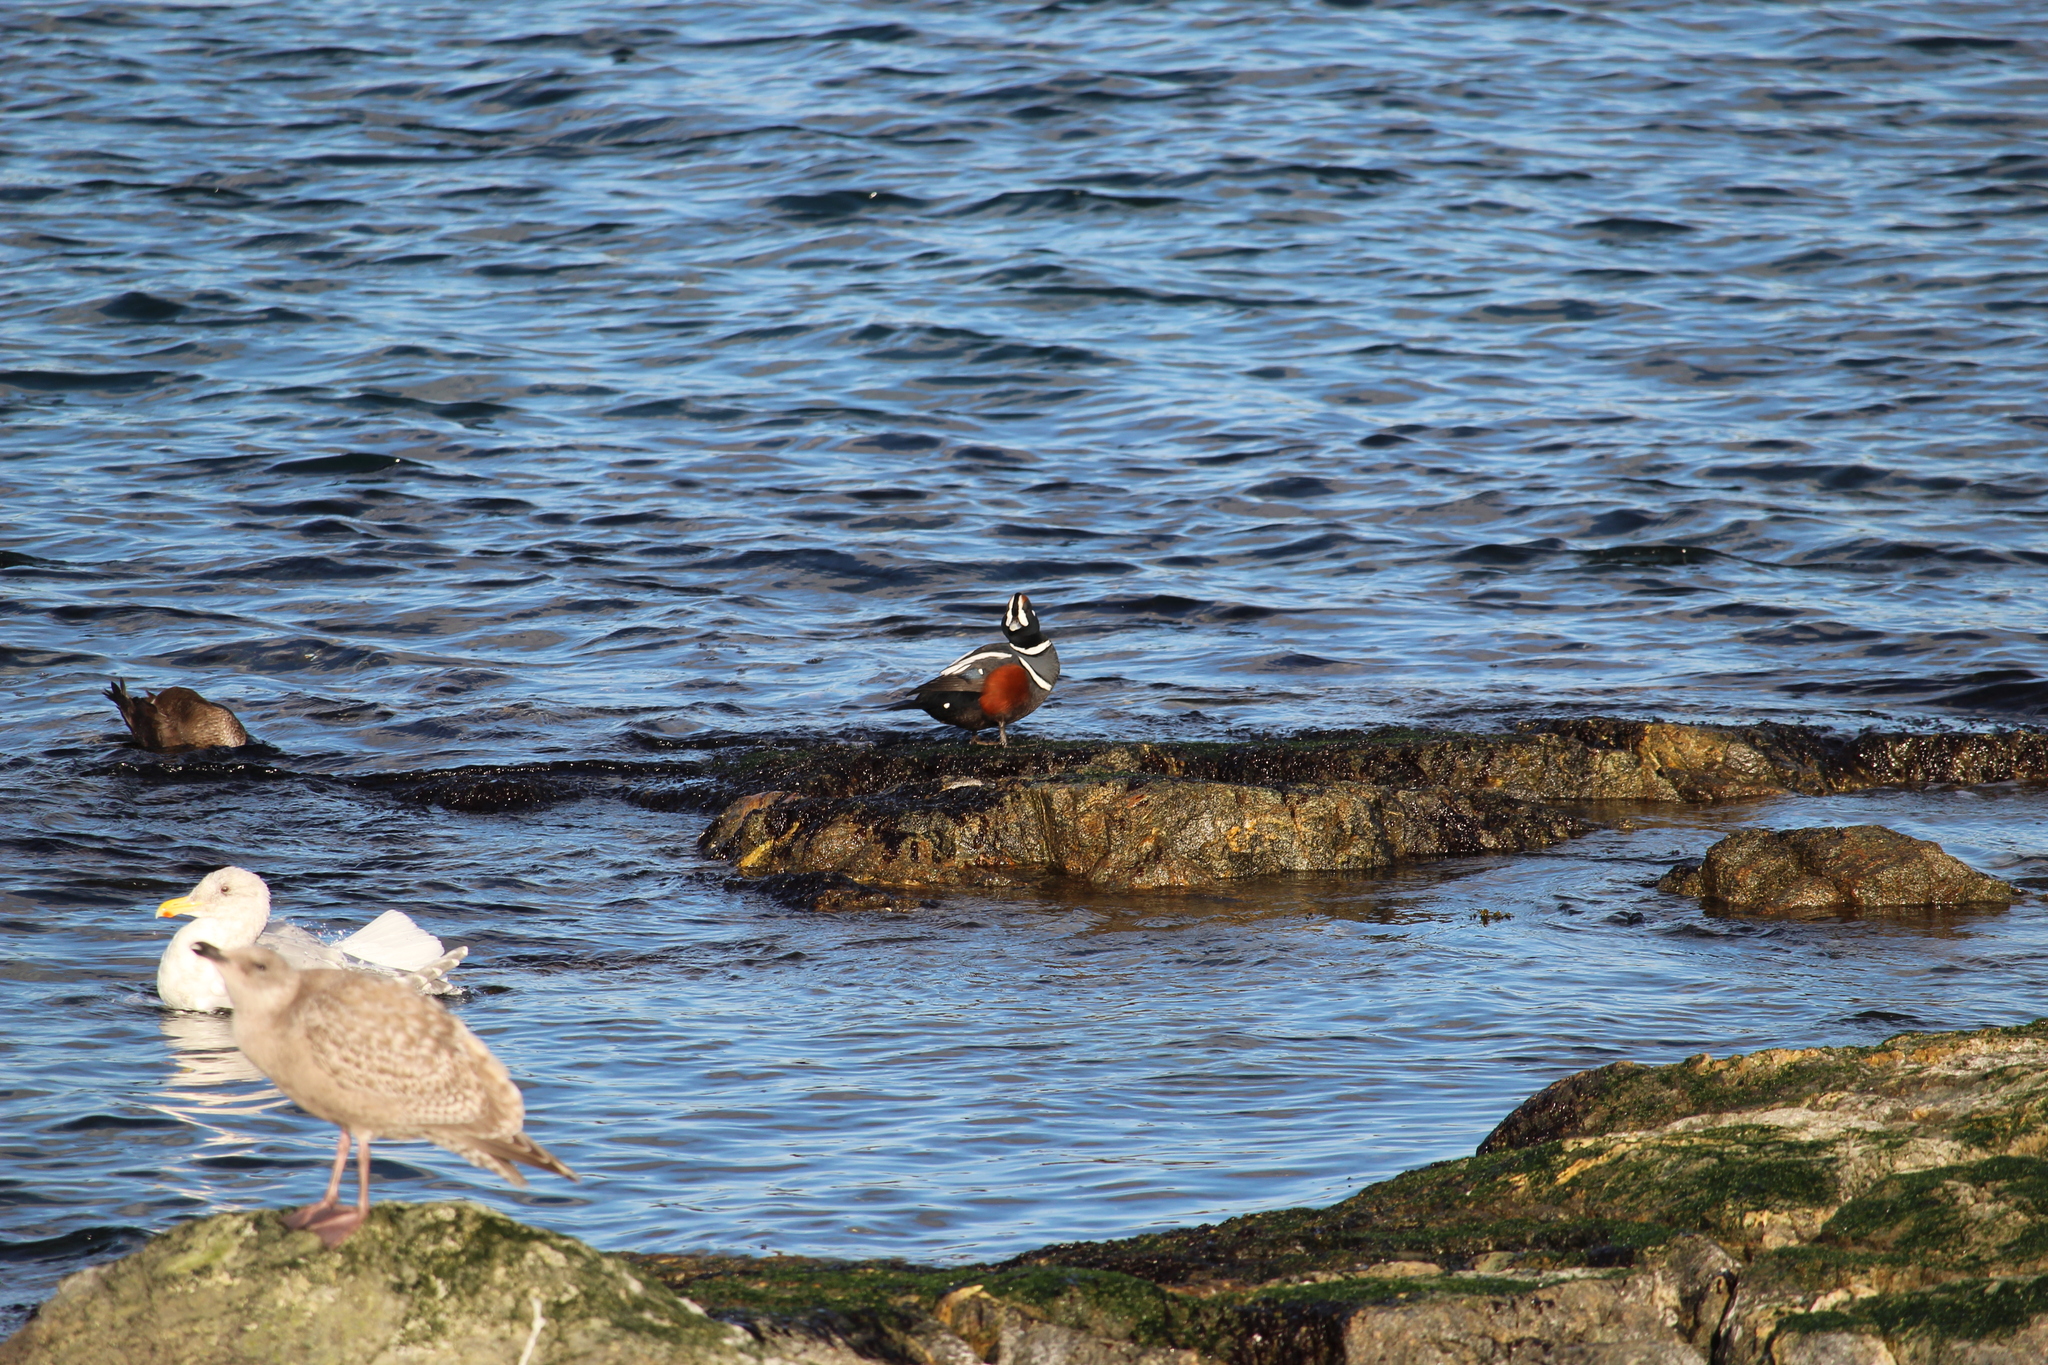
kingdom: Animalia
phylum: Chordata
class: Aves
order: Anseriformes
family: Anatidae
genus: Histrionicus
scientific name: Histrionicus histrionicus
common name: Harlequin duck
